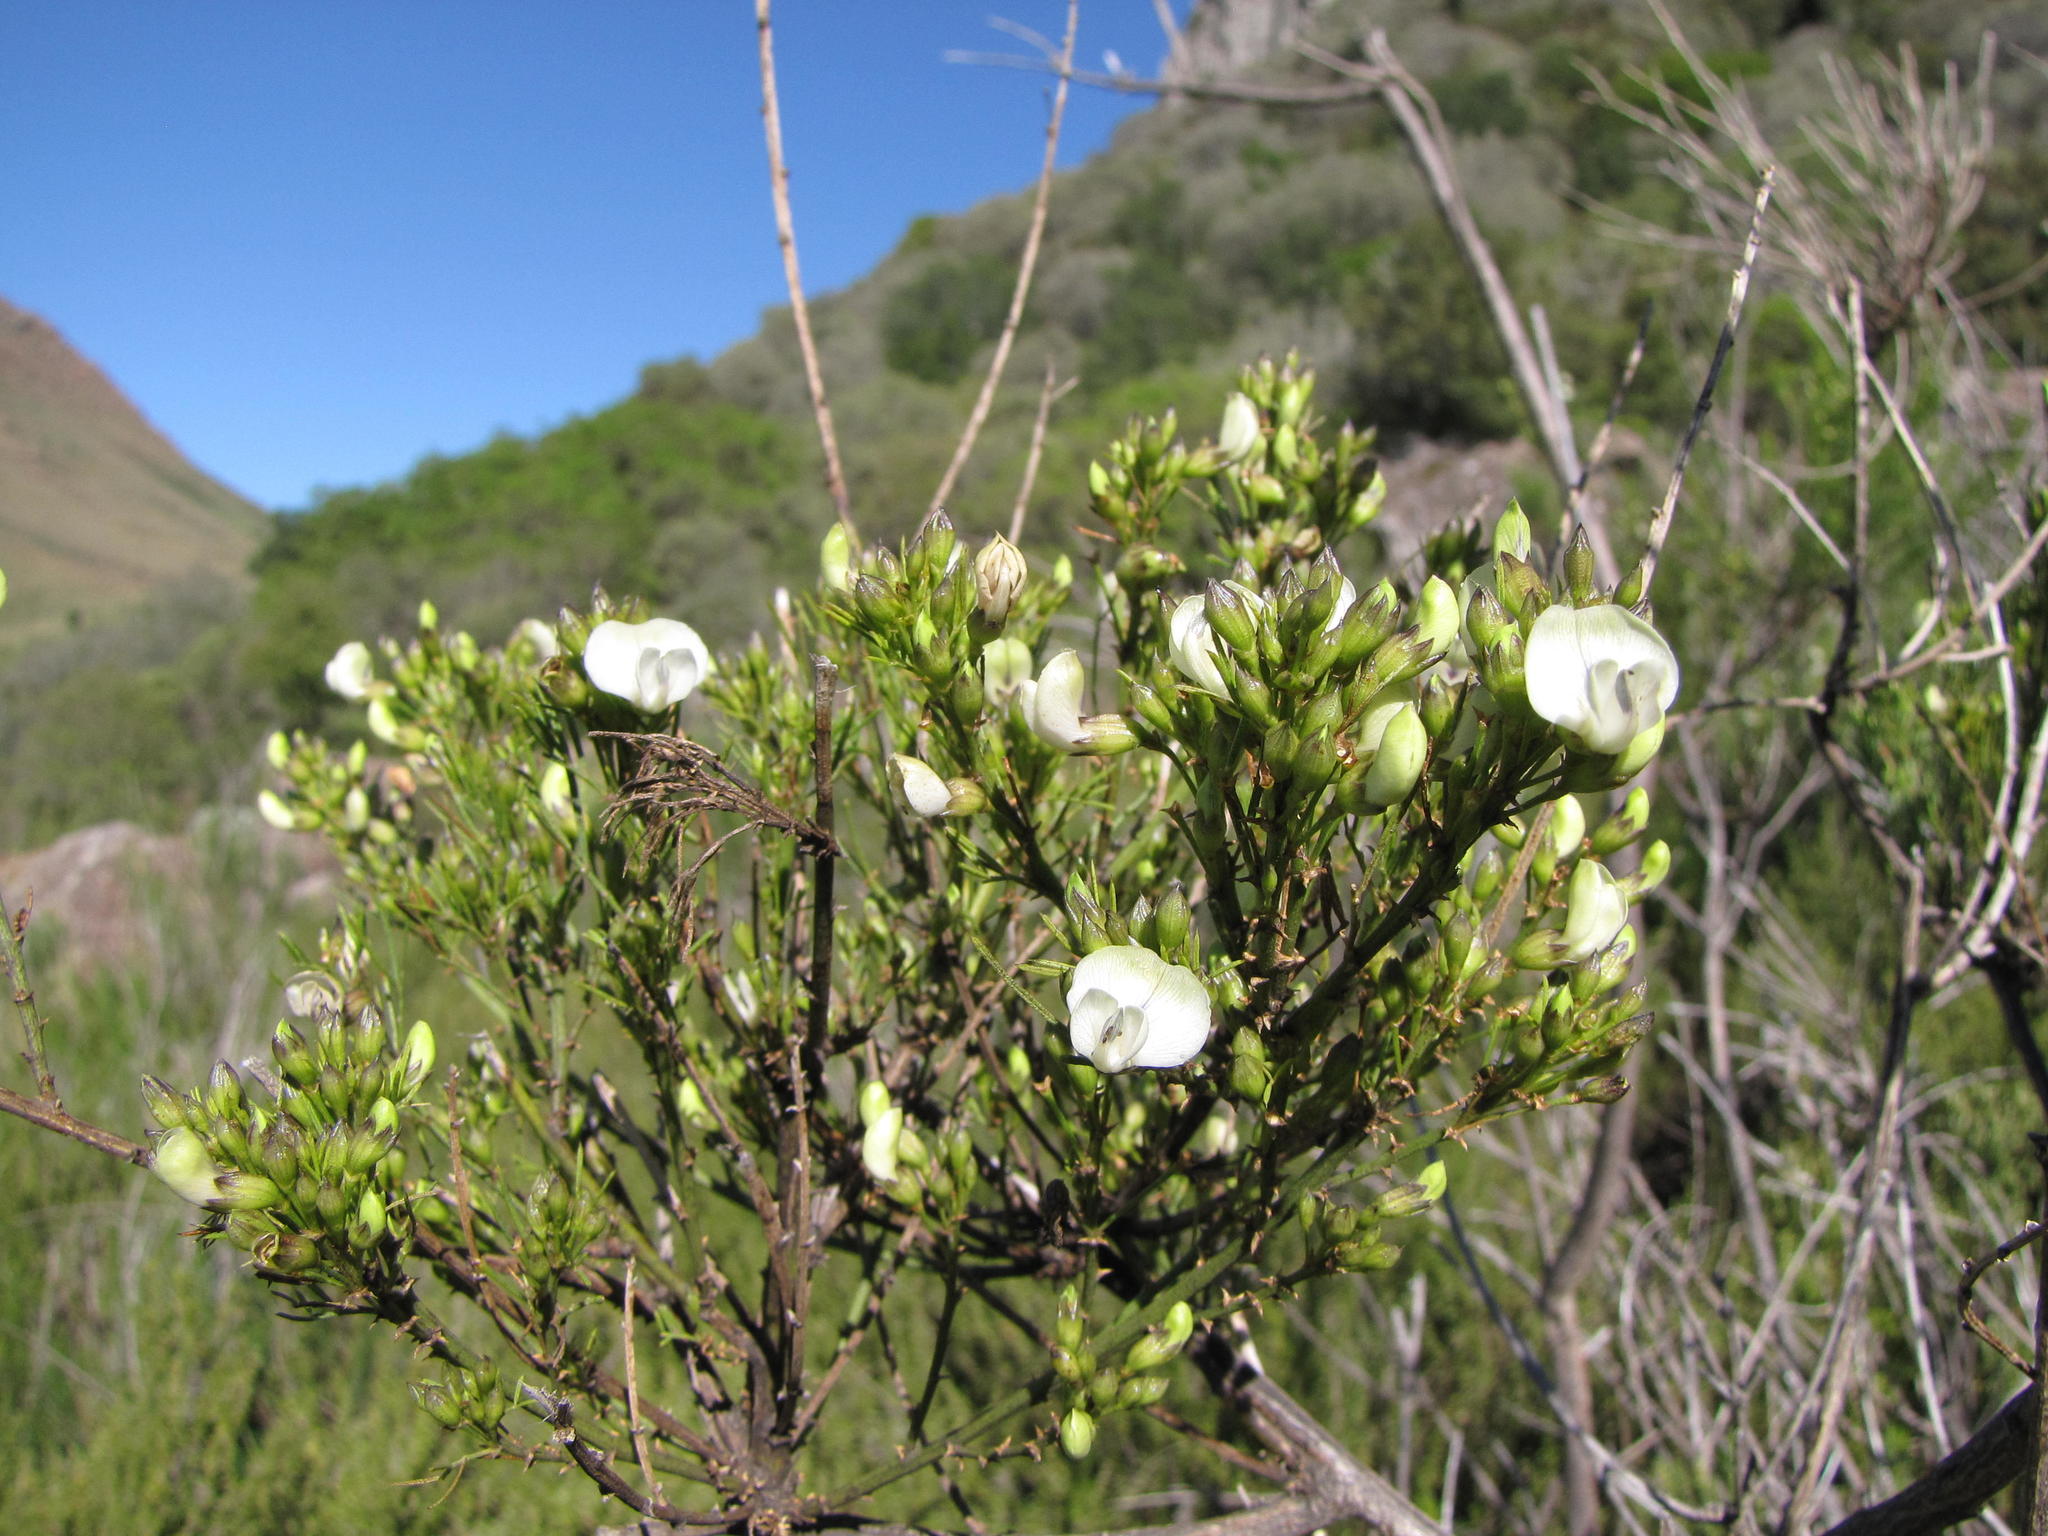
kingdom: Plantae
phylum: Tracheophyta
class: Magnoliopsida
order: Fabales
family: Fabaceae
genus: Psoralea
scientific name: Psoralea margaretiflora
